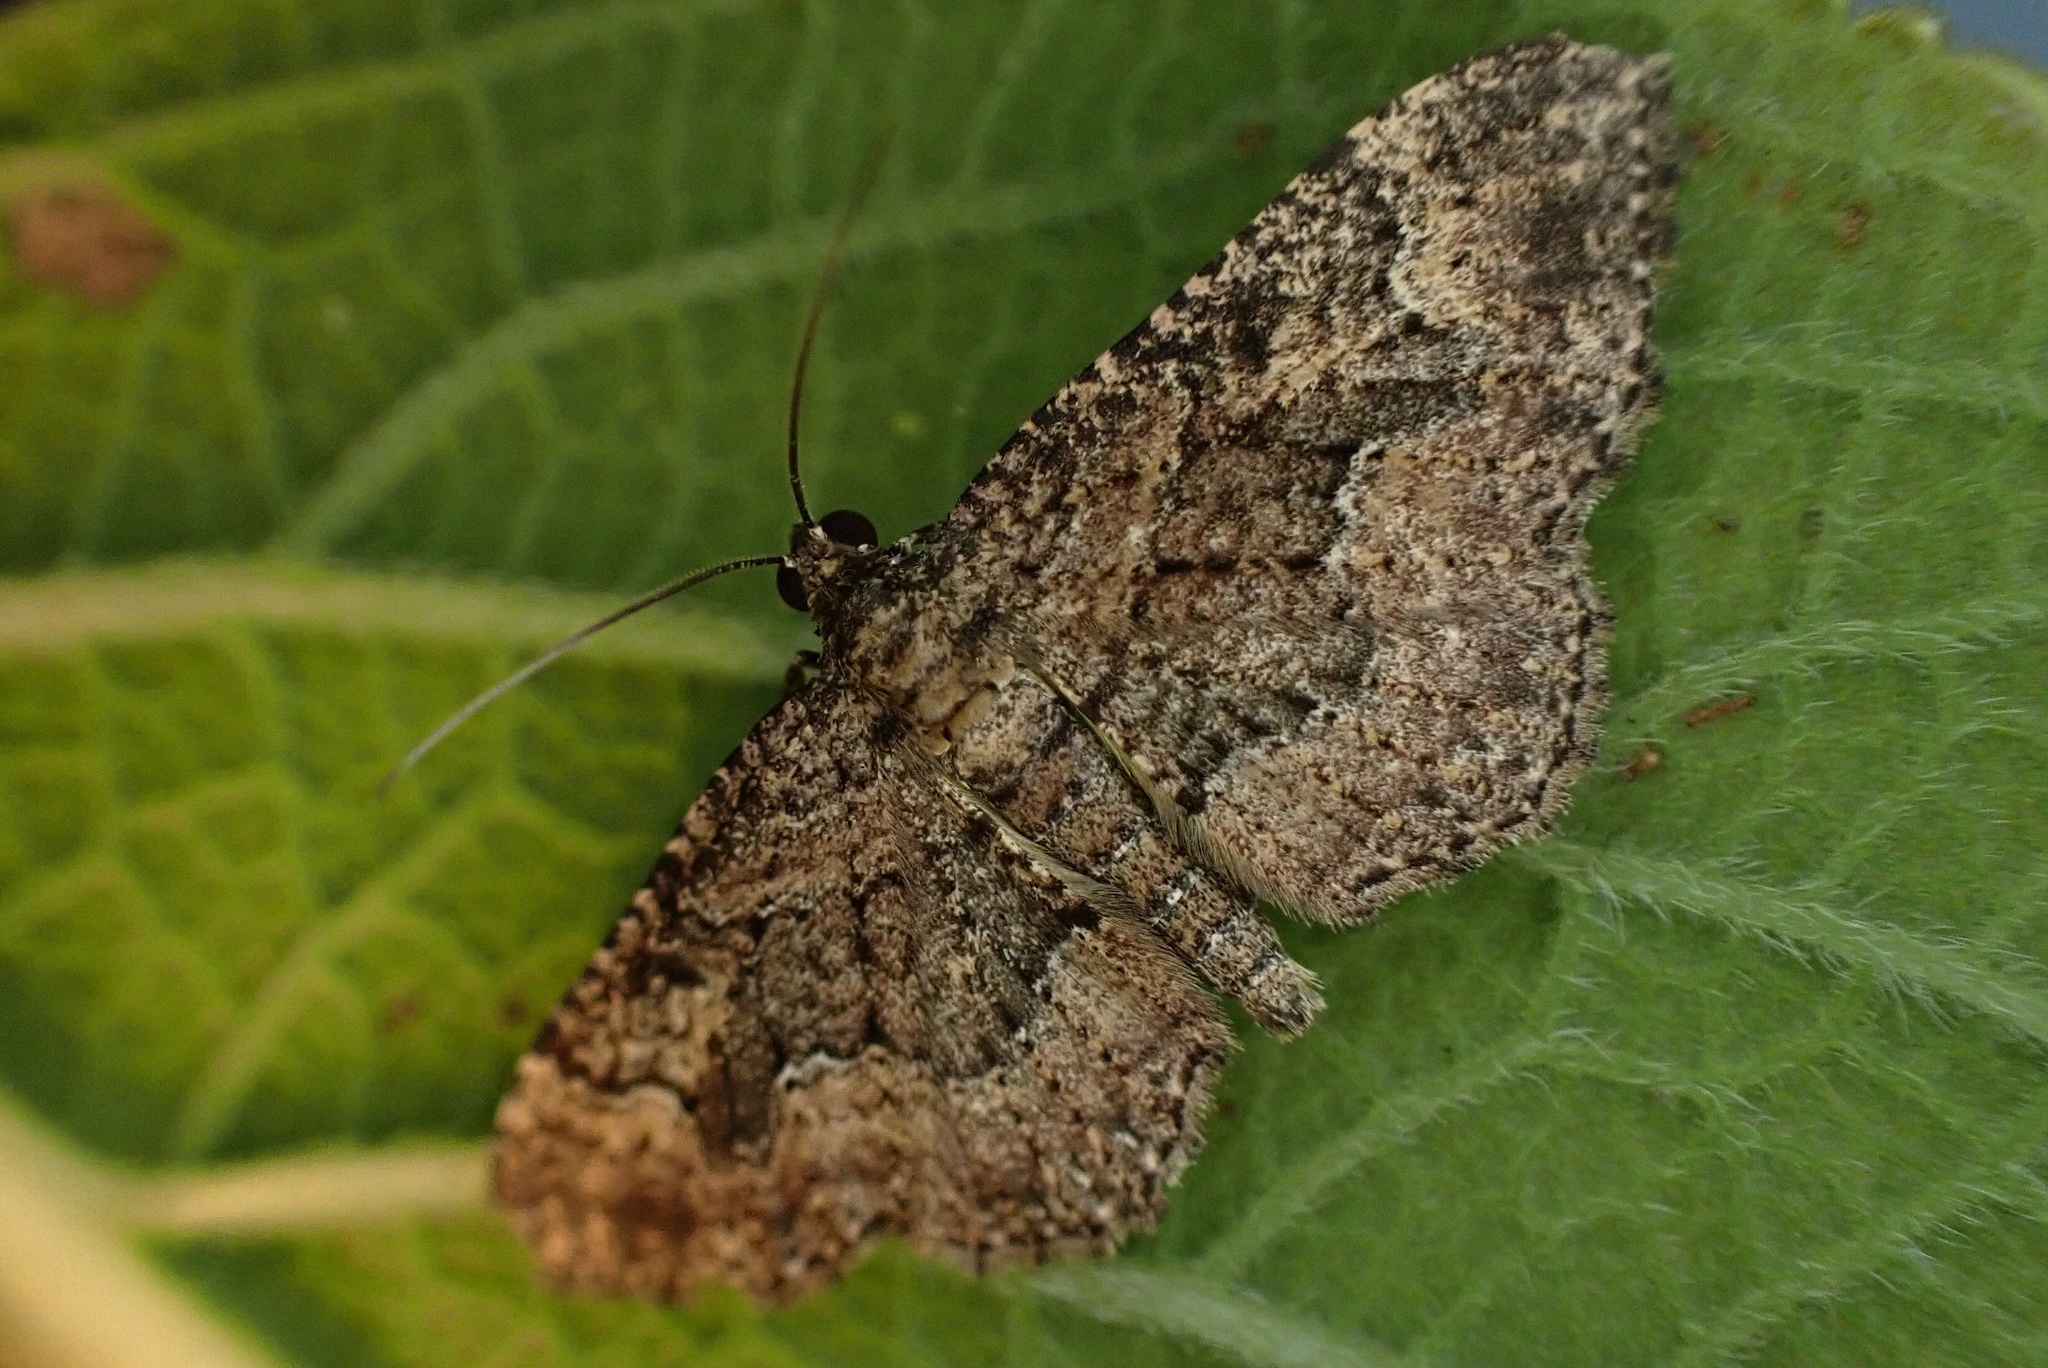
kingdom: Animalia
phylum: Arthropoda
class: Insecta
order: Lepidoptera
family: Geometridae
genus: Disclisioprocta
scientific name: Disclisioprocta stellata
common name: Somber carpet
